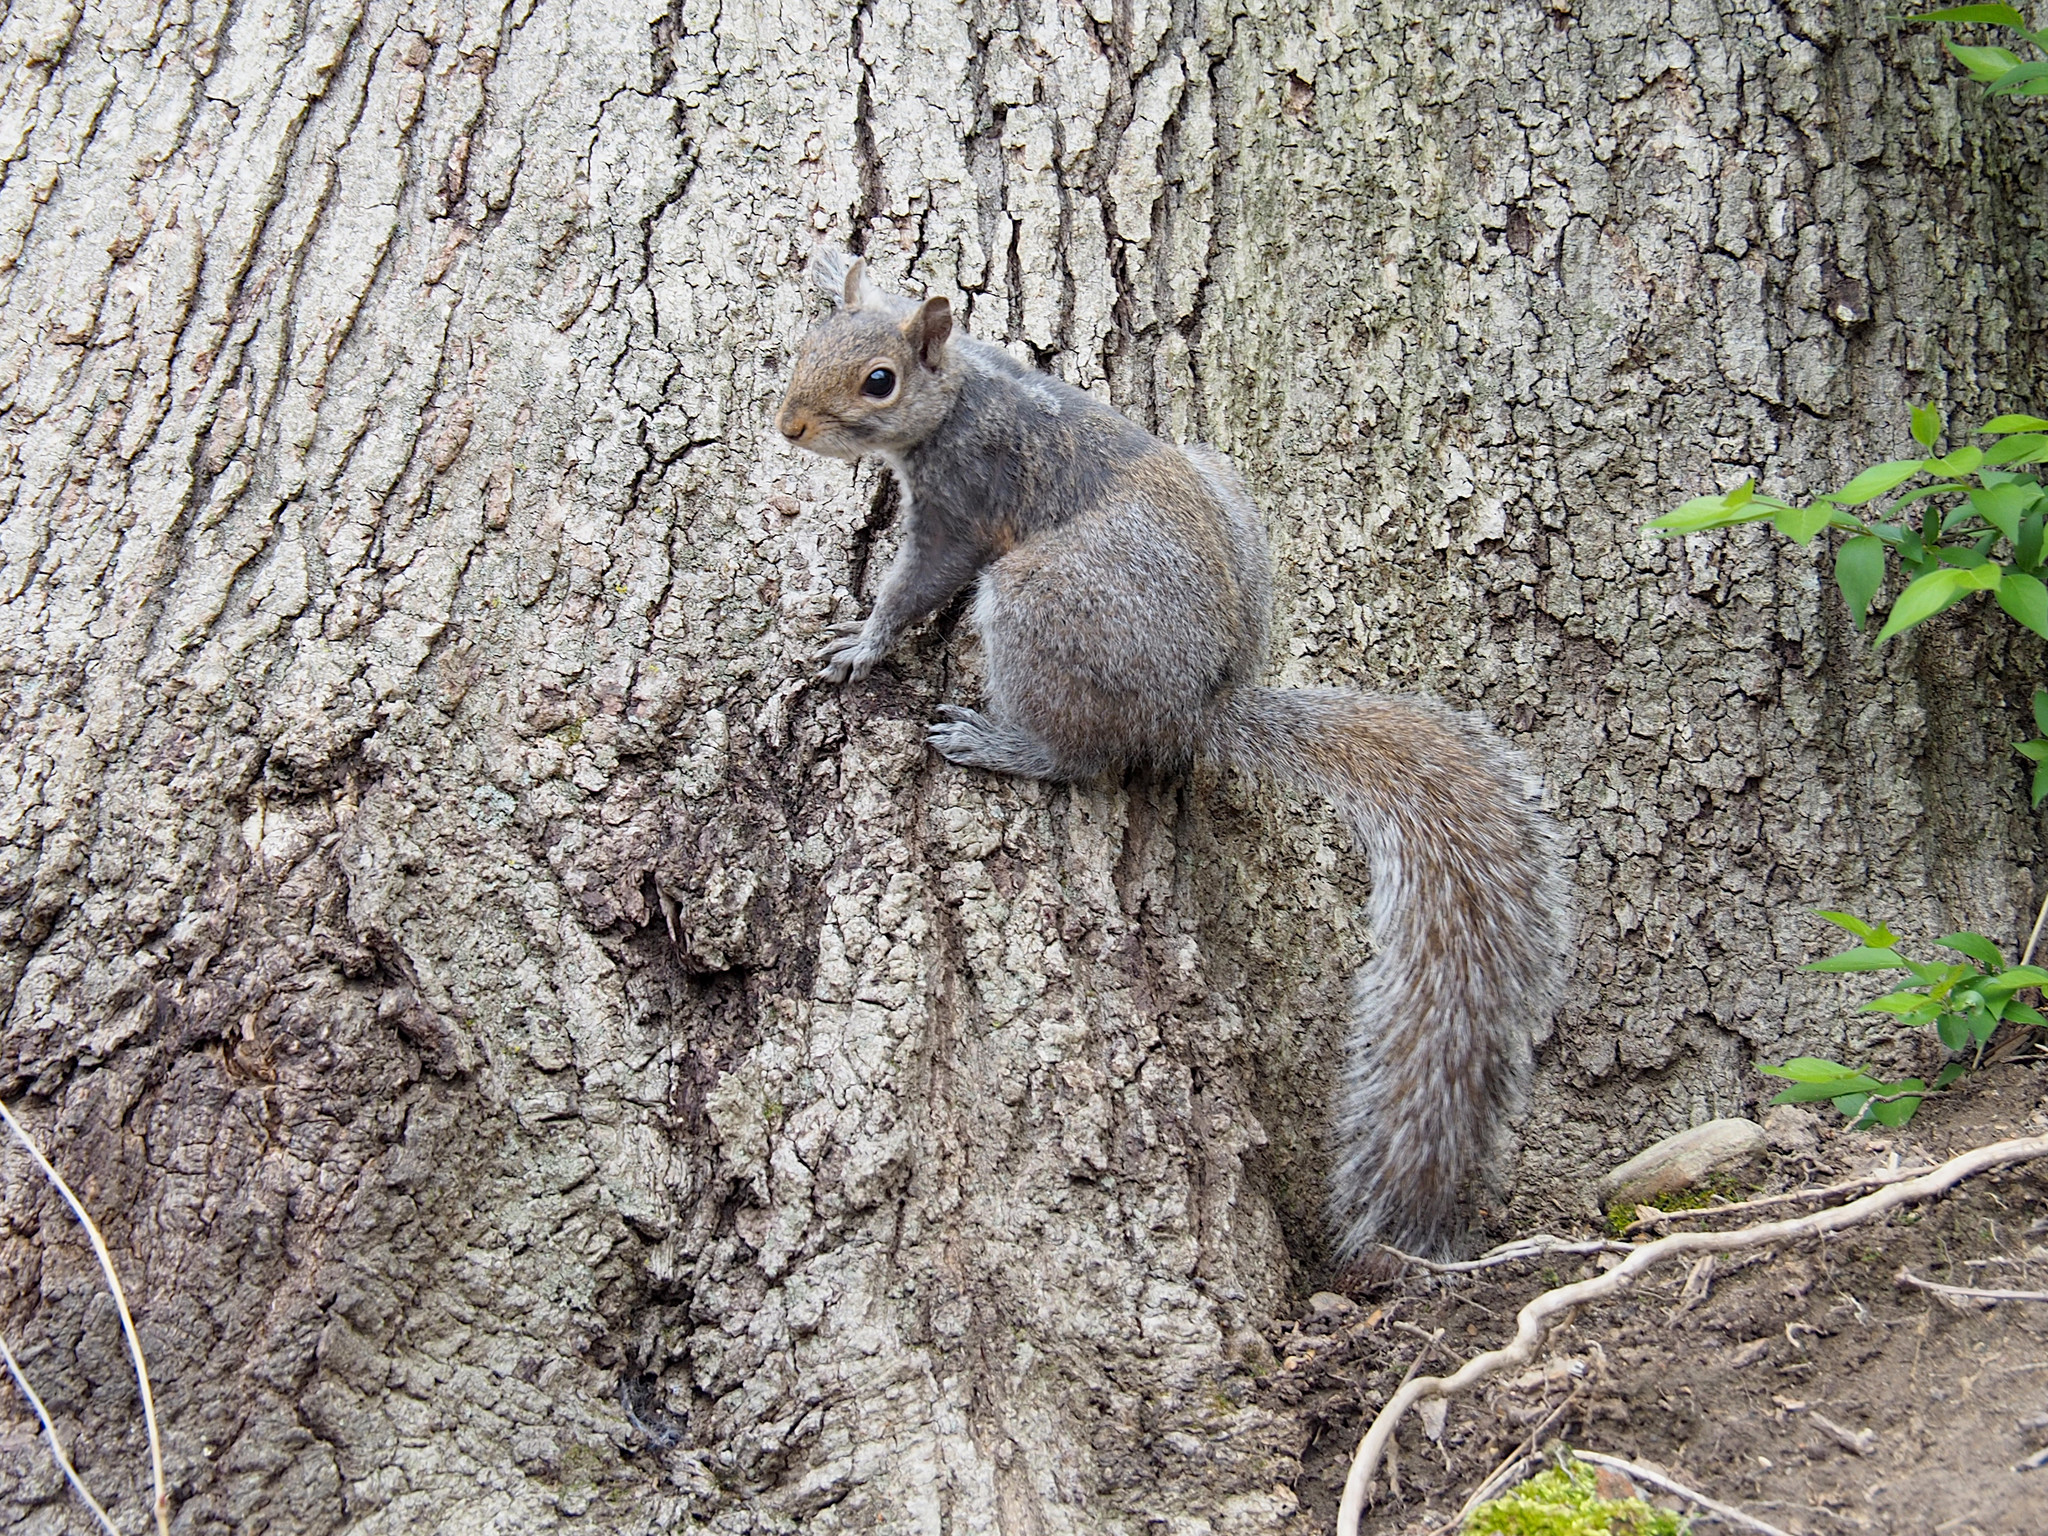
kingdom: Animalia
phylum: Chordata
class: Mammalia
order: Rodentia
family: Sciuridae
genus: Sciurus
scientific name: Sciurus carolinensis
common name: Eastern gray squirrel
